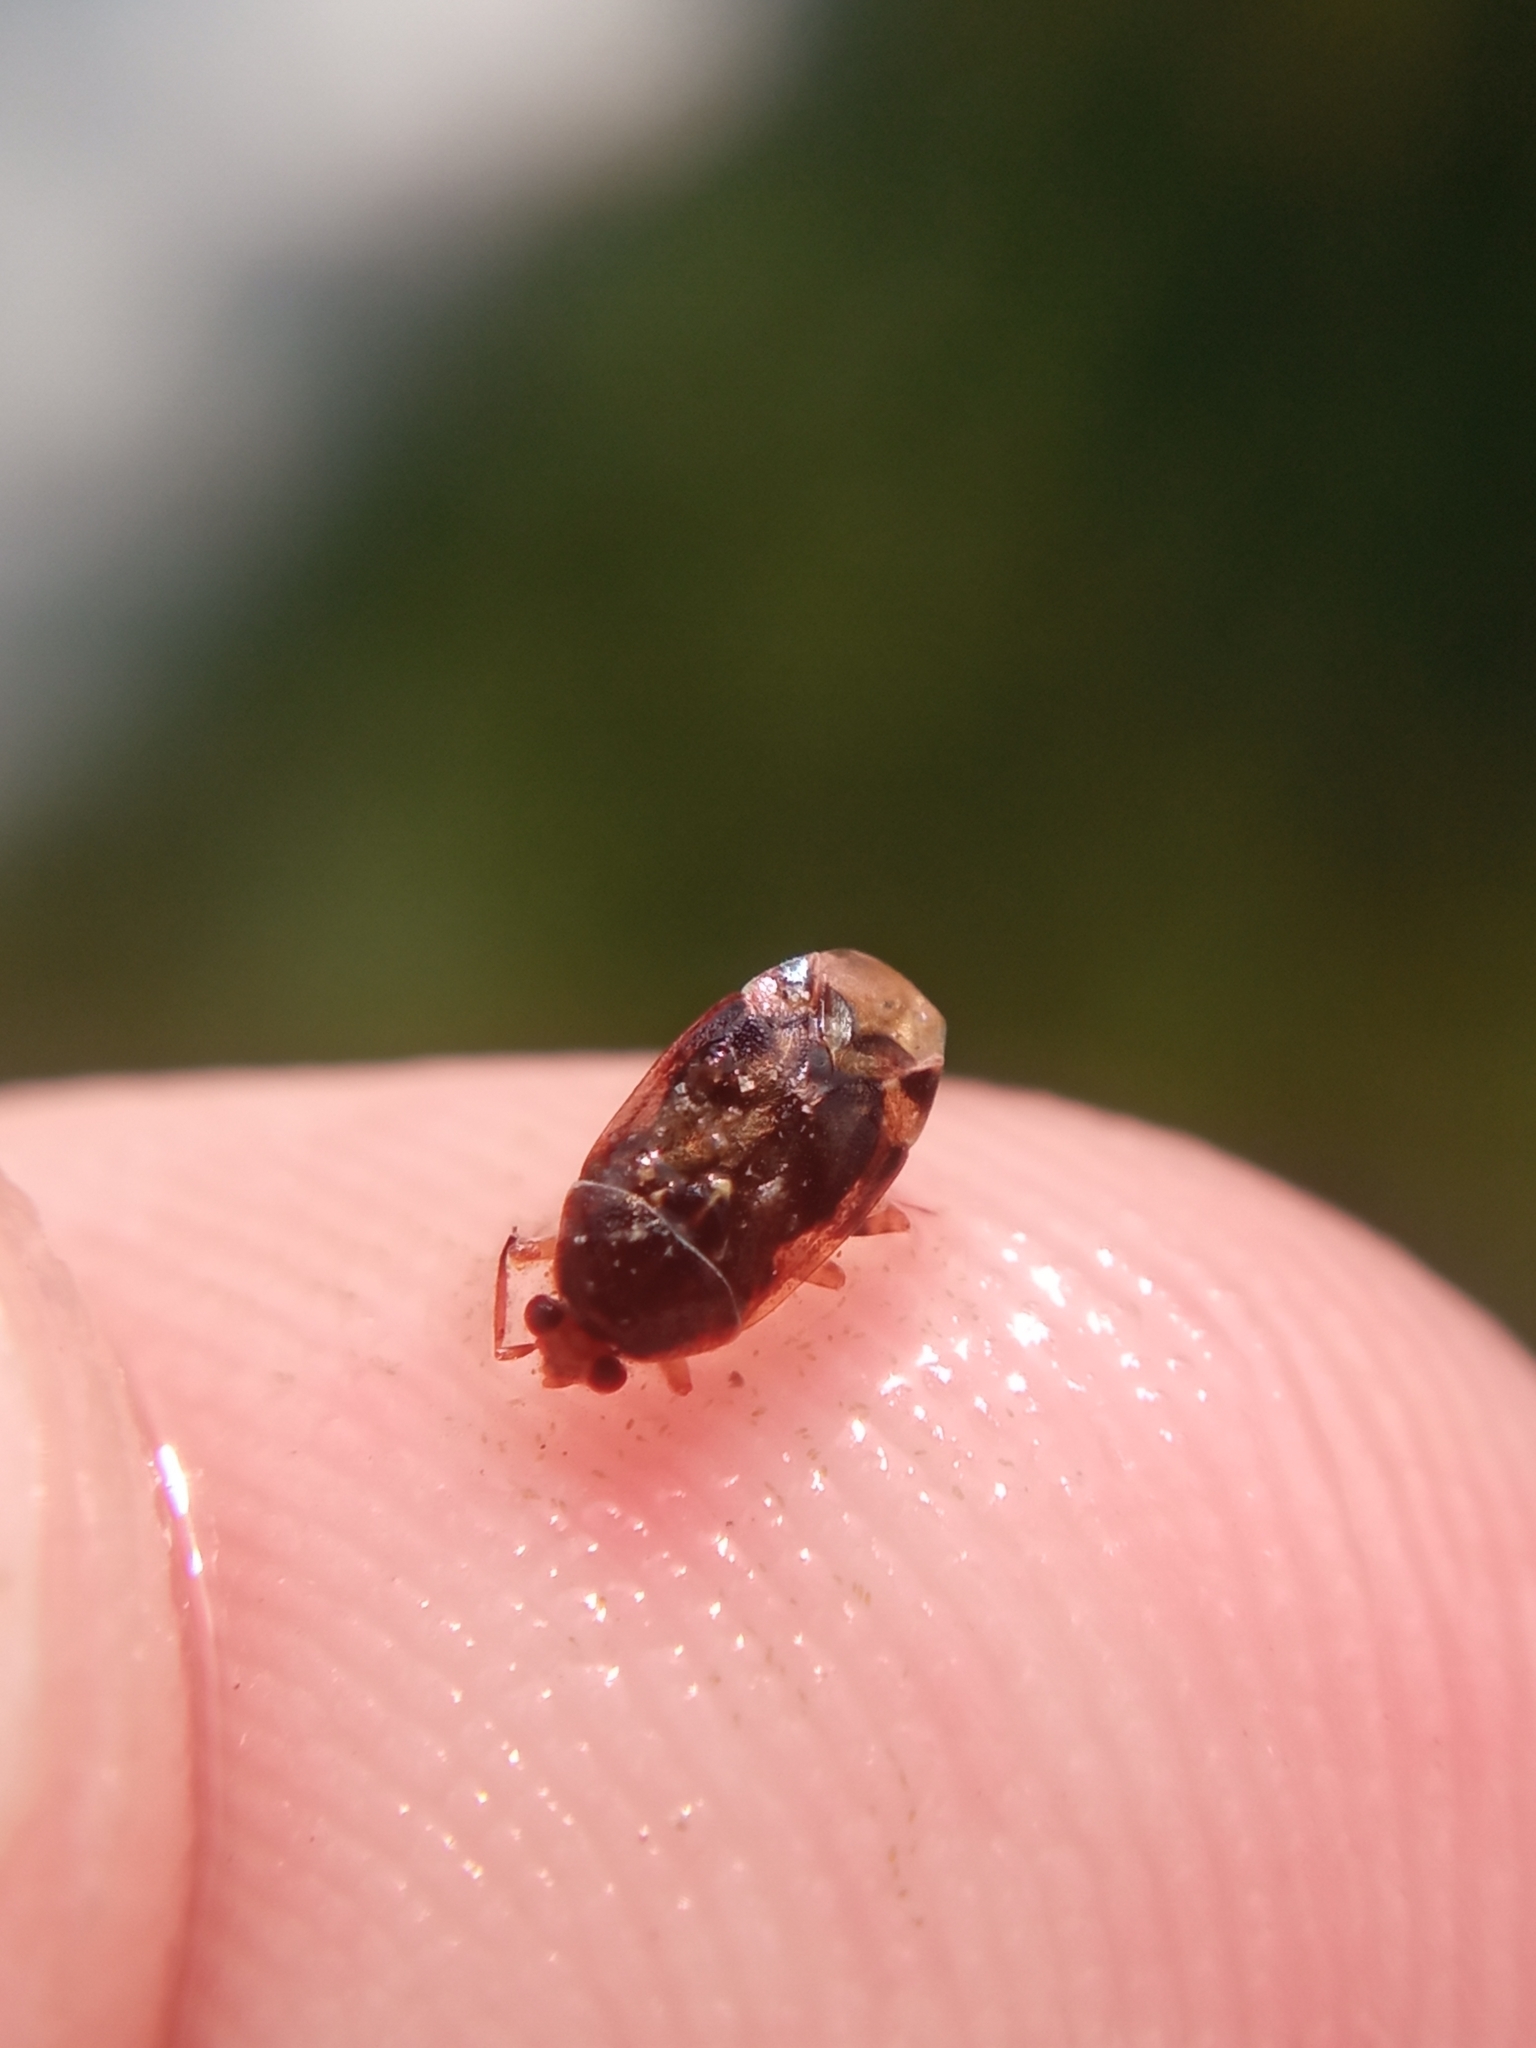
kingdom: Animalia
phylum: Arthropoda
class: Insecta
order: Hemiptera
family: Miridae
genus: Deraeocoris
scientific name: Deraeocoris lutescens
